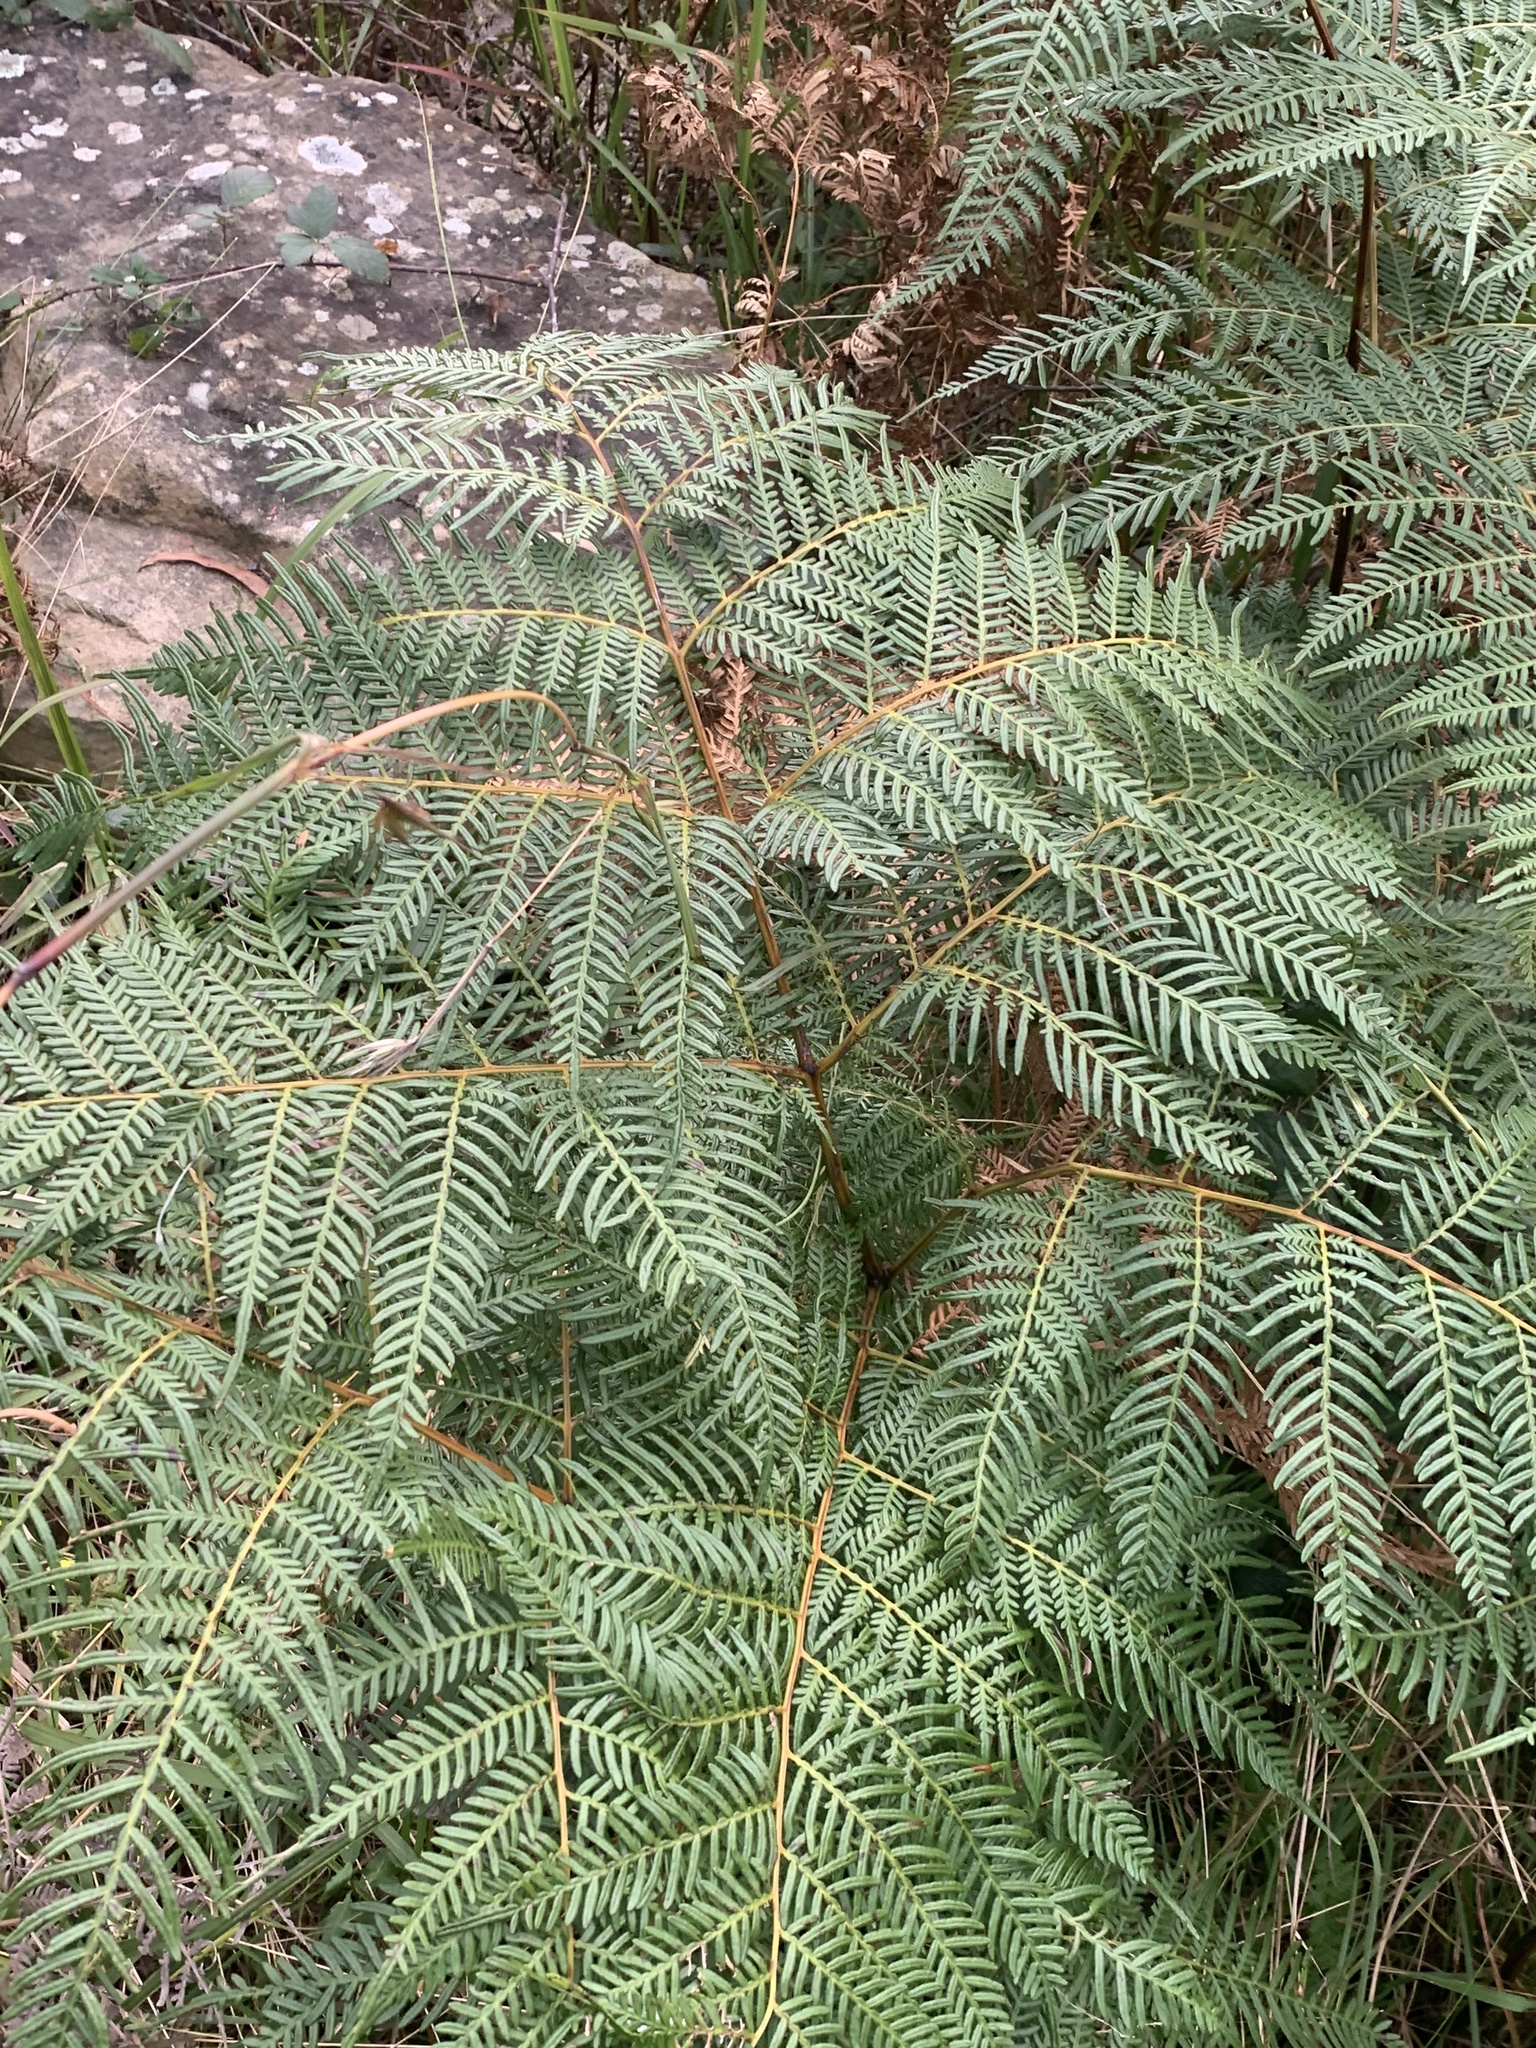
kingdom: Plantae
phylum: Tracheophyta
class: Polypodiopsida
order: Polypodiales
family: Dennstaedtiaceae
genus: Pteridium
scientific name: Pteridium esculentum
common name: Bracken fern
